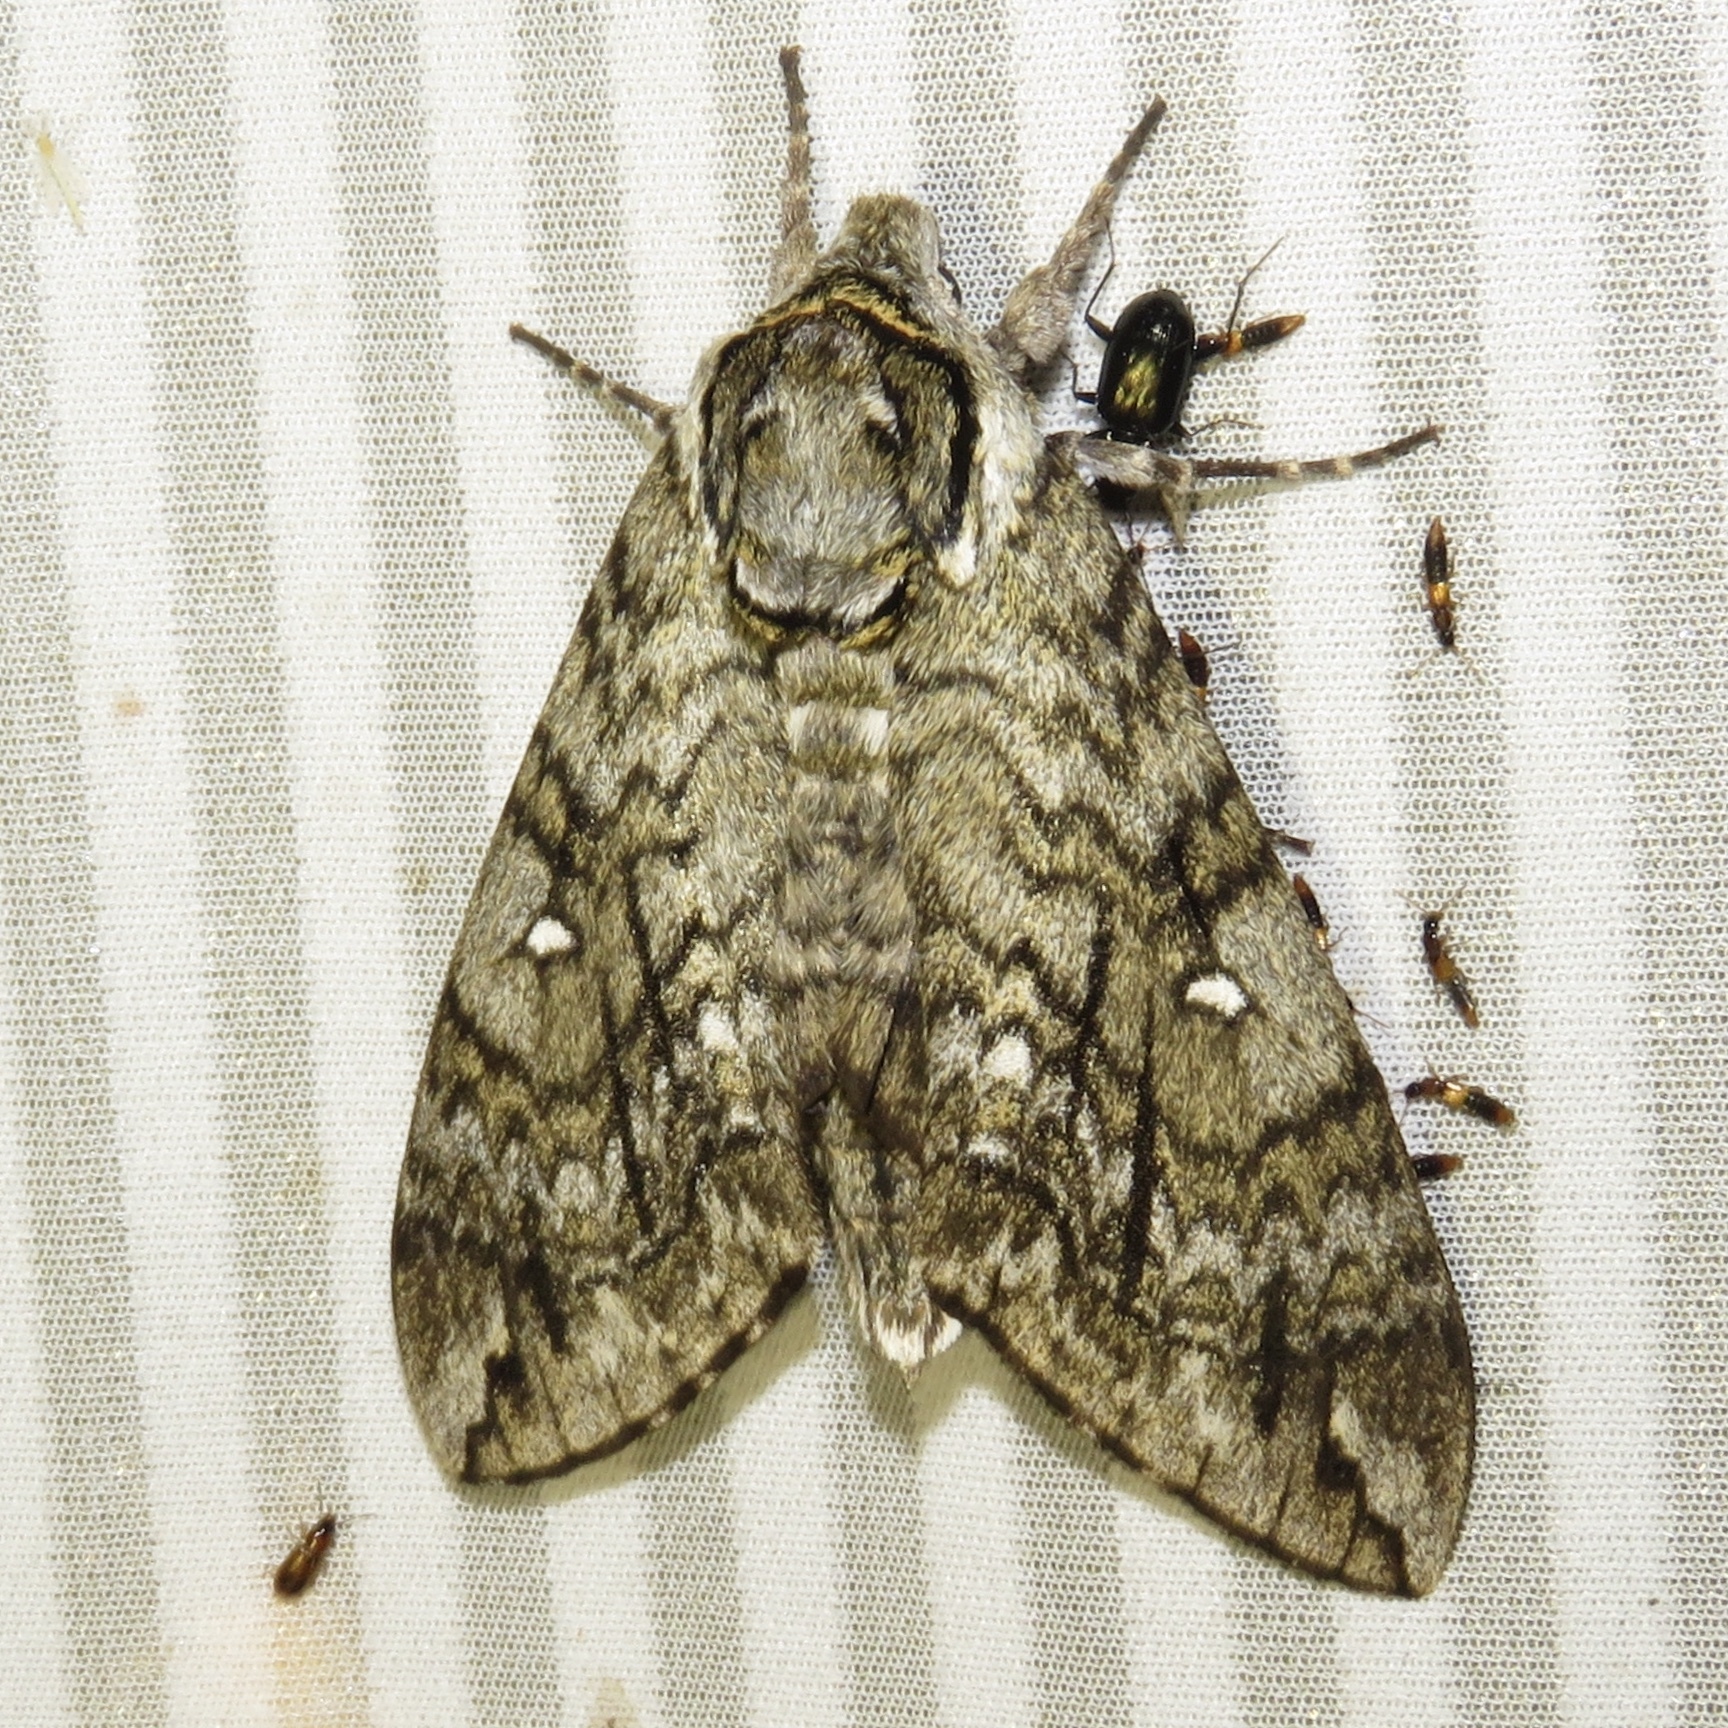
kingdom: Animalia
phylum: Arthropoda
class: Insecta
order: Lepidoptera
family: Sphingidae
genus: Ceratomia
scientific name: Ceratomia undulosa
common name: Waved sphinx
